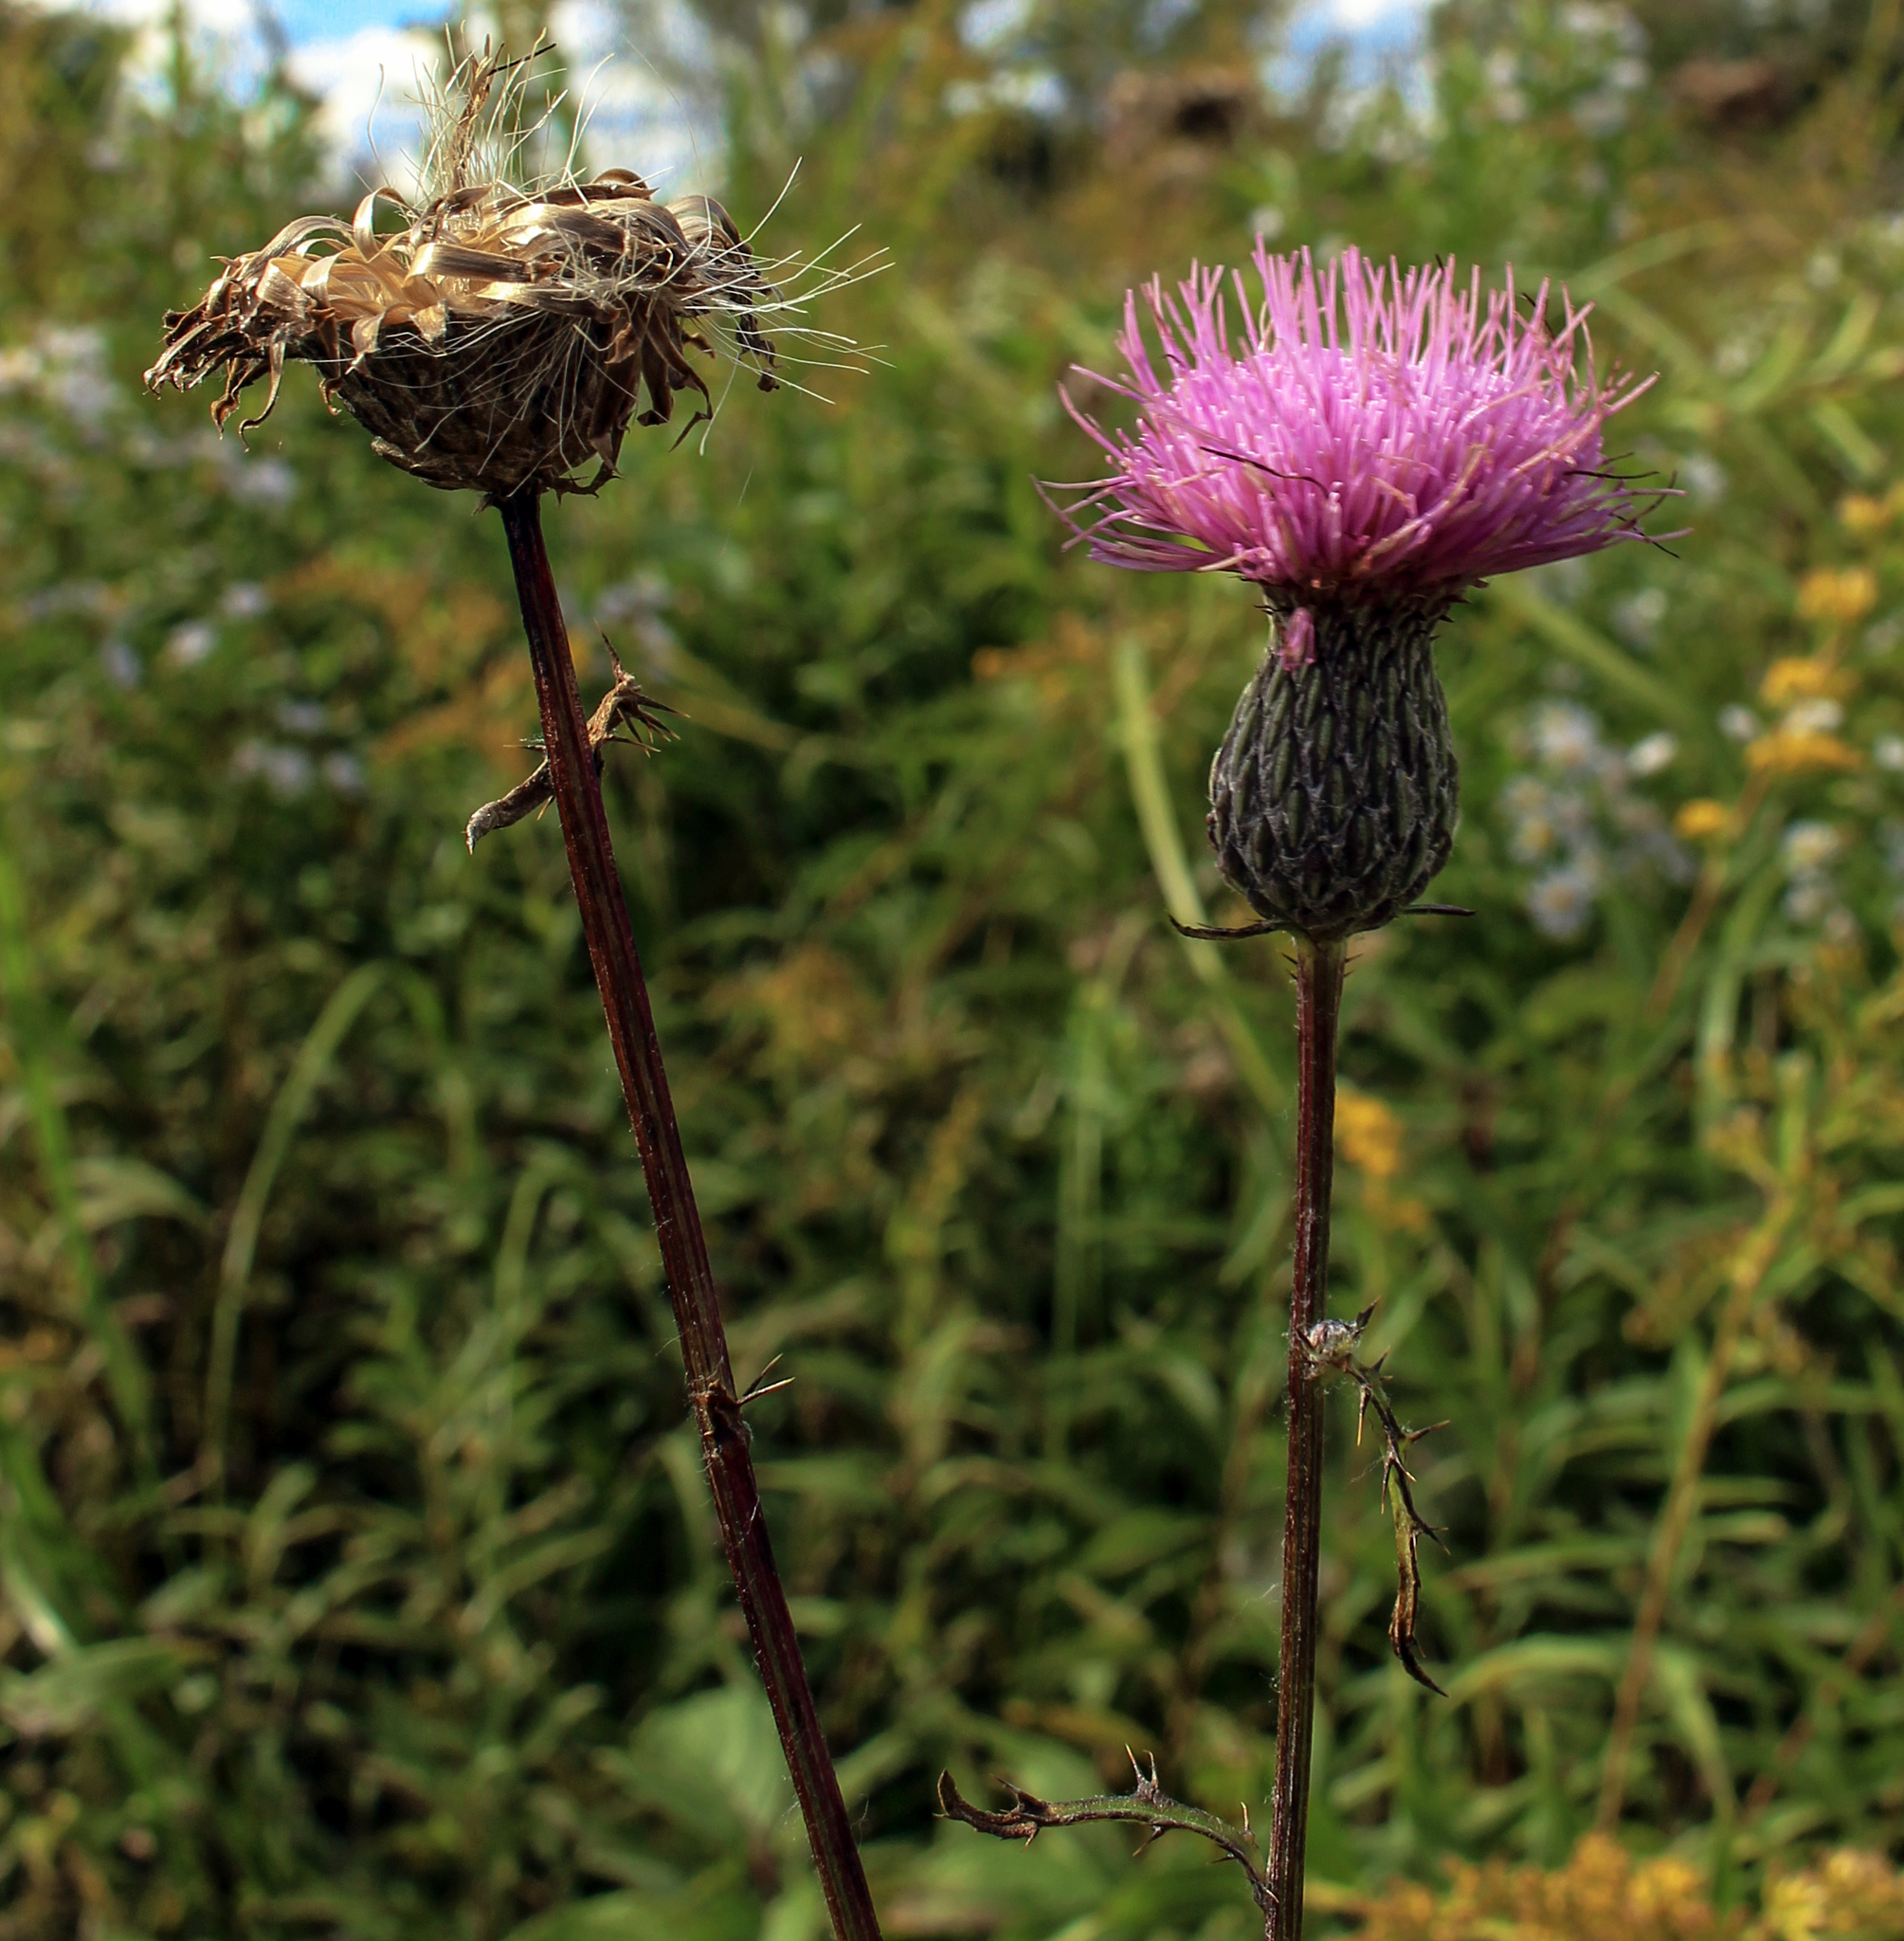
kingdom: Plantae
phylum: Tracheophyta
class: Magnoliopsida
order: Asterales
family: Asteraceae
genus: Cirsium
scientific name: Cirsium muticum
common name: Dunce-nettle
